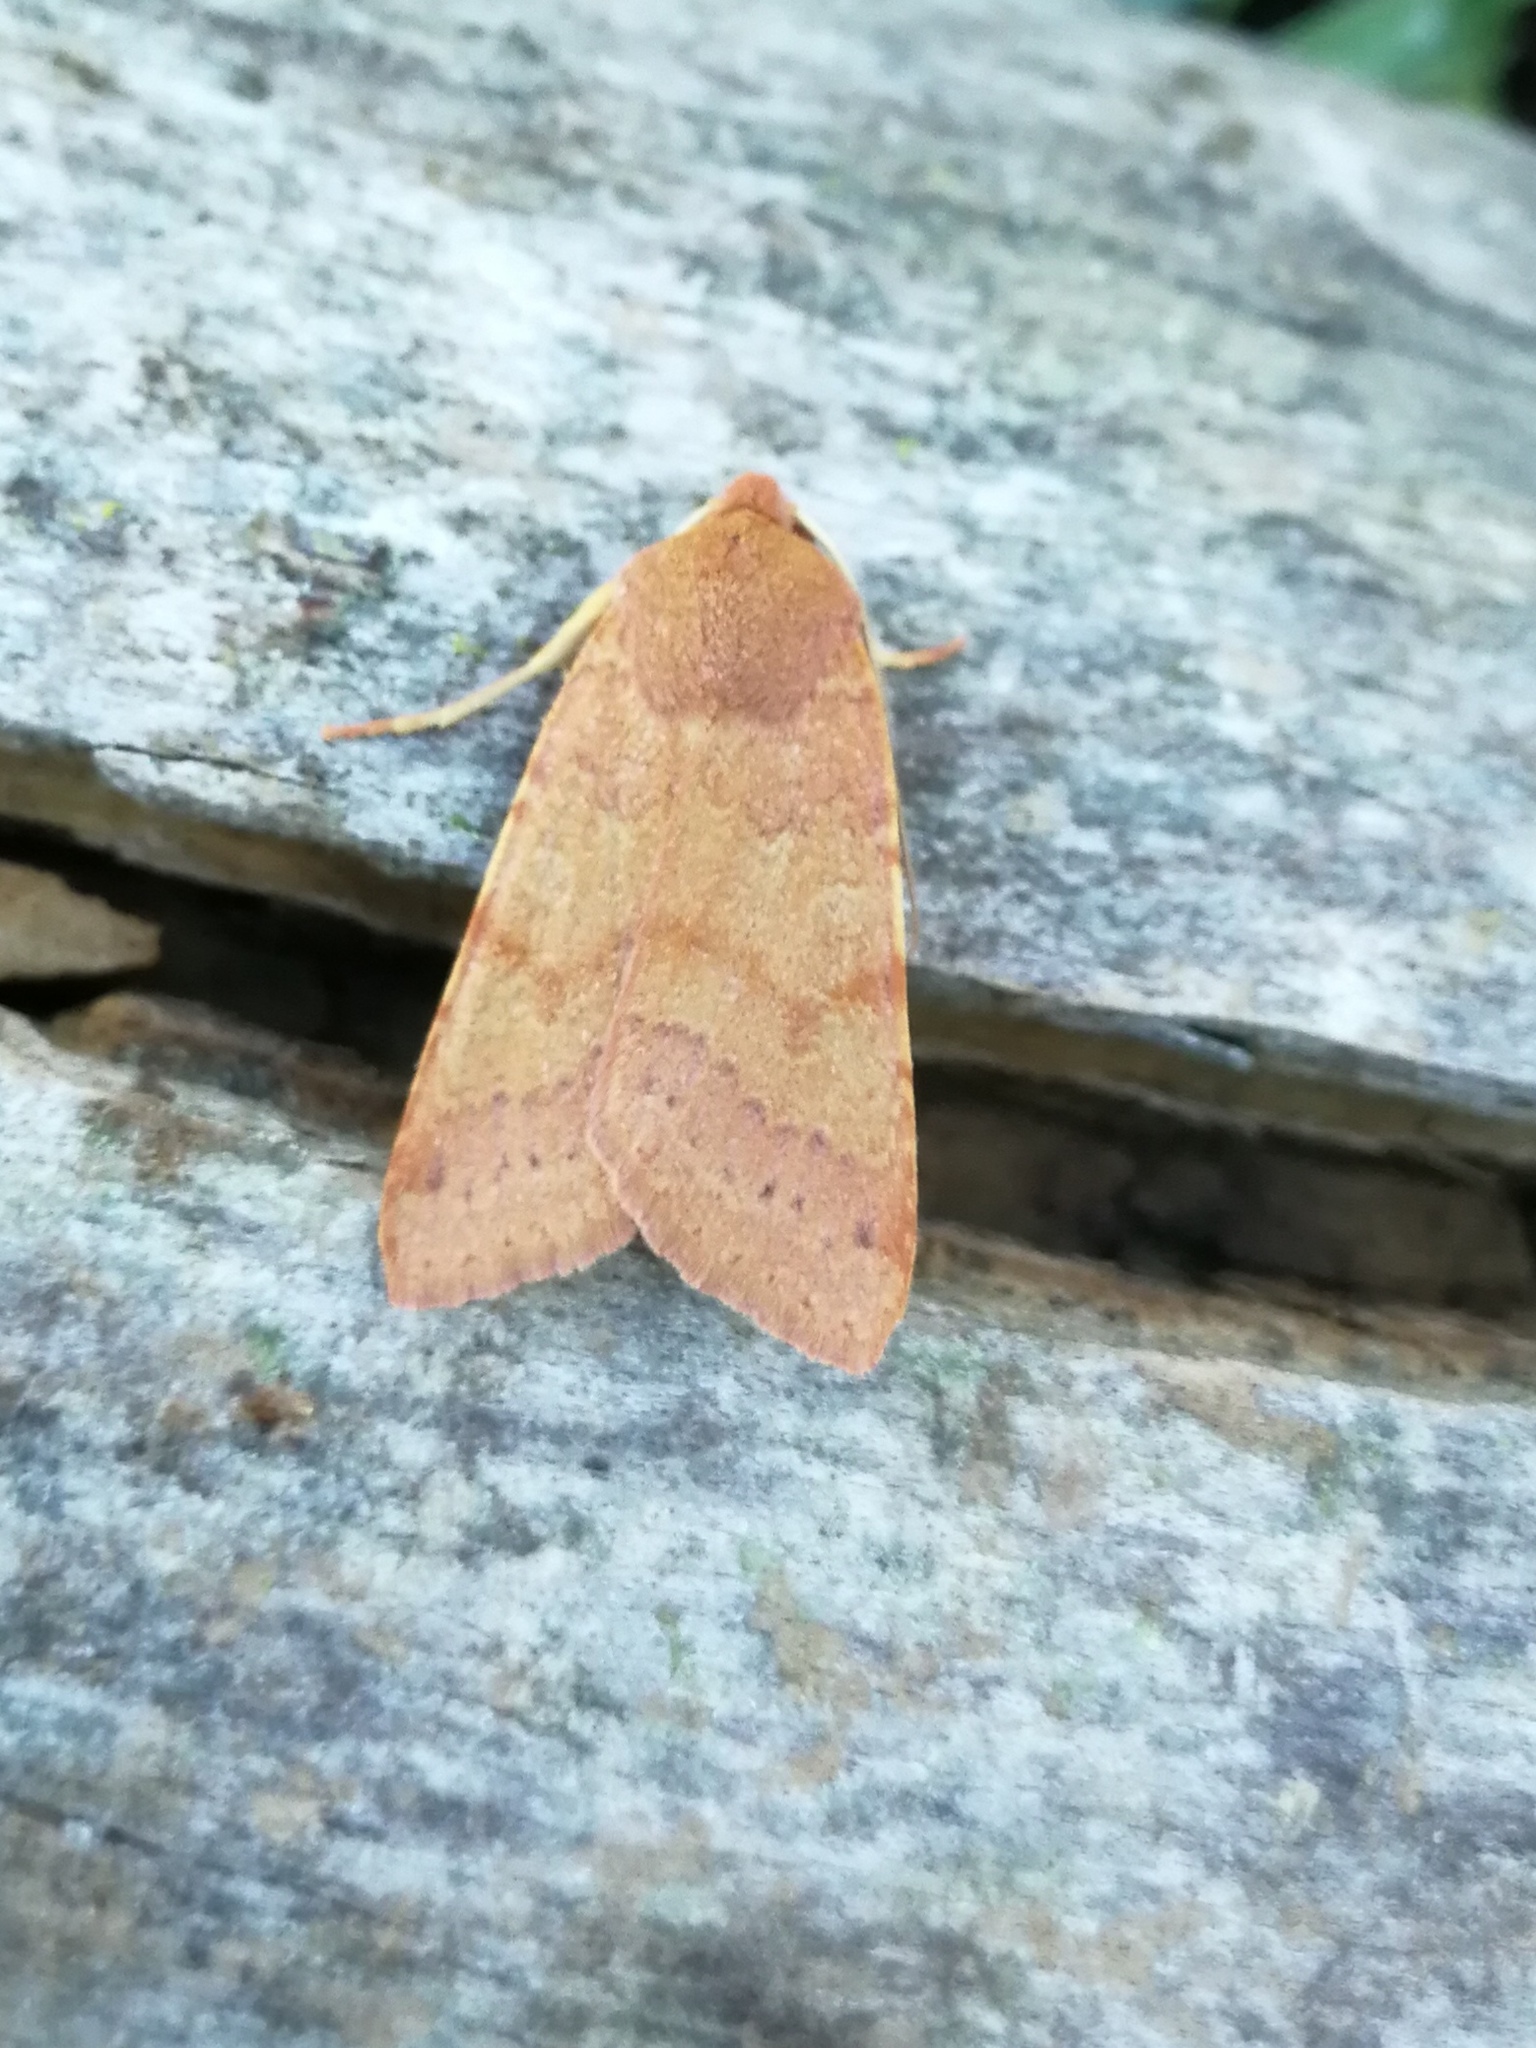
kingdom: Animalia
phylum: Arthropoda
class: Insecta
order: Lepidoptera
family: Noctuidae
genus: Agrochola
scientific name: Agrochola helvola
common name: Flounced chestnut
